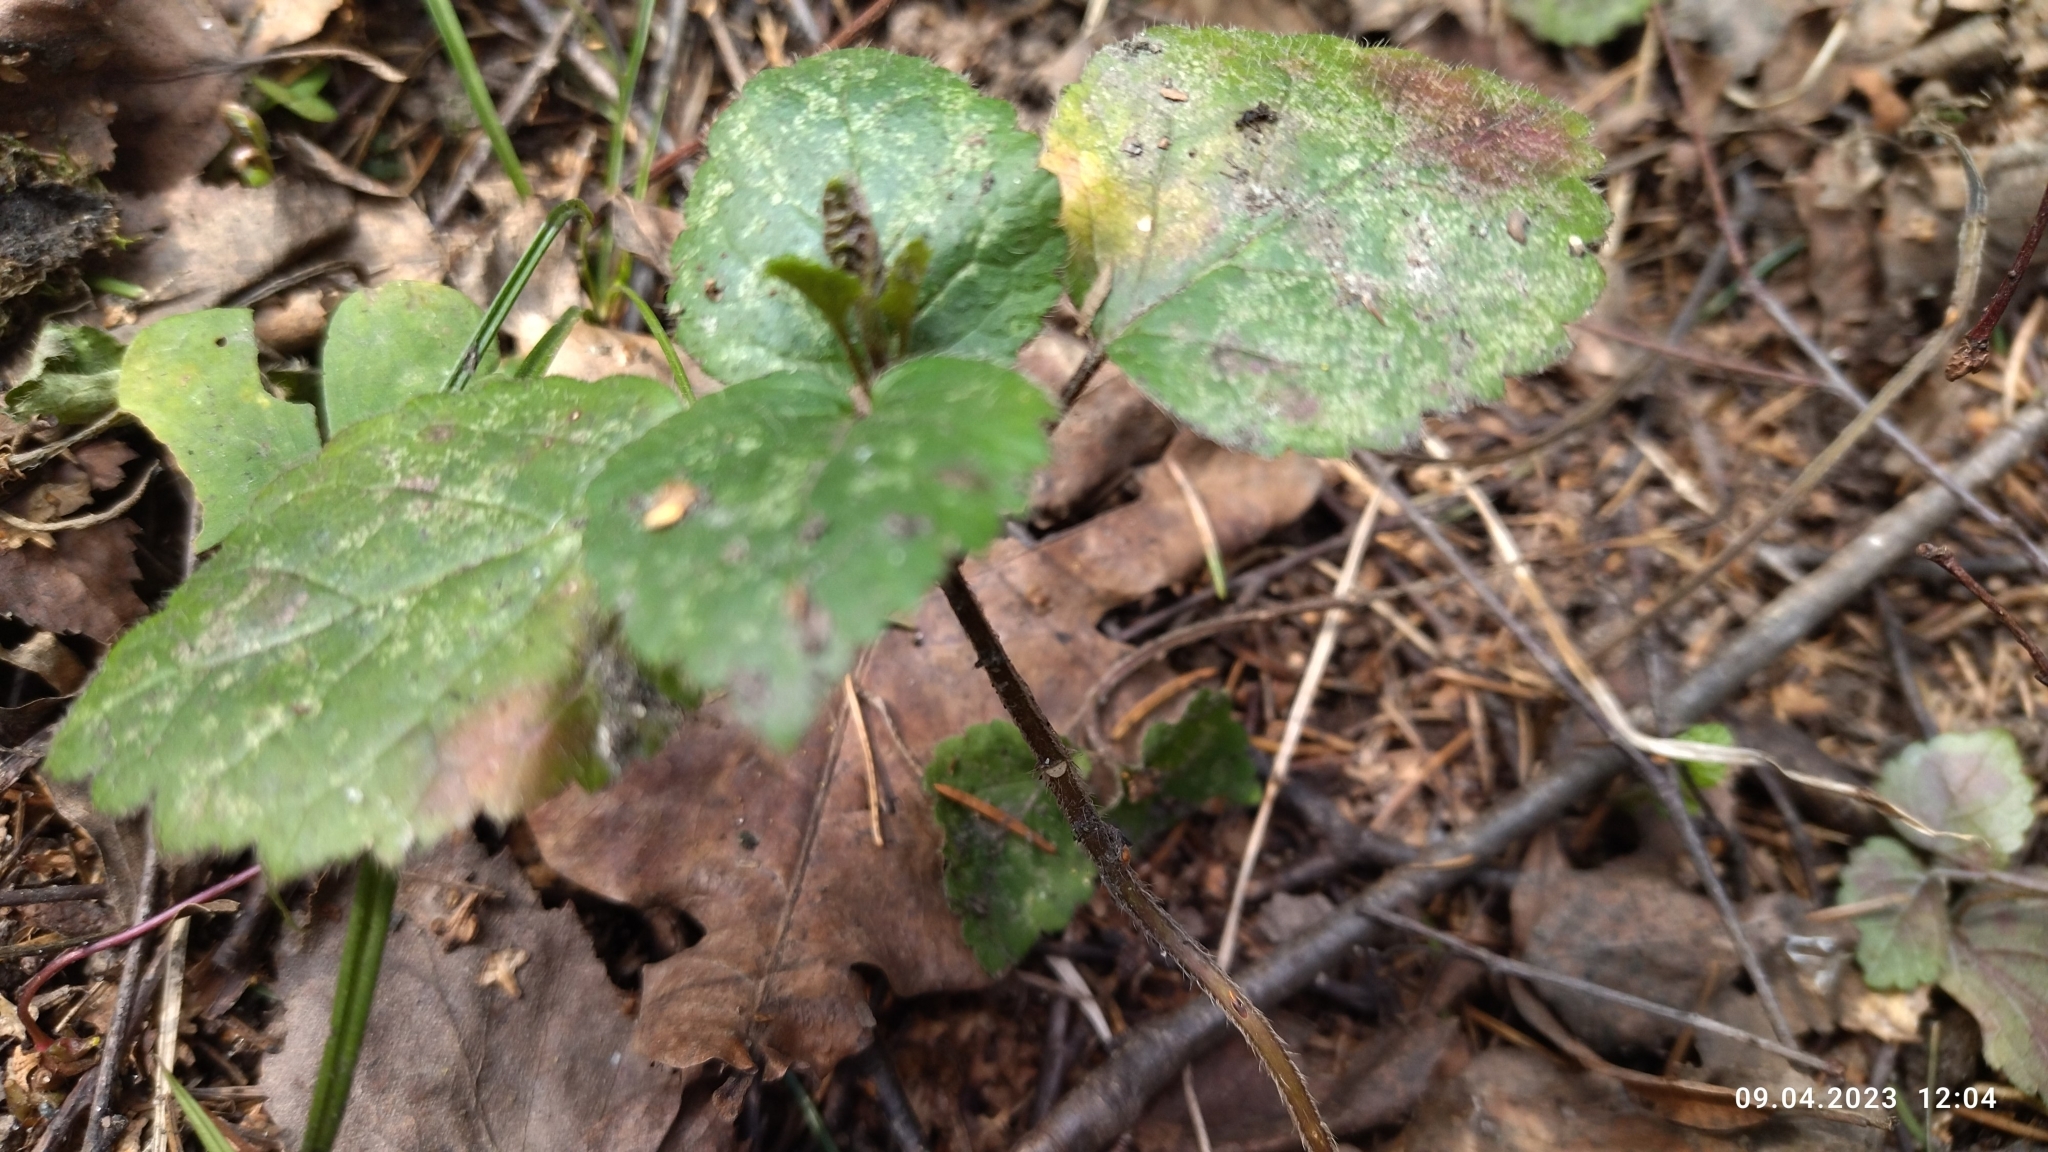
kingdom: Plantae
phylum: Tracheophyta
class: Magnoliopsida
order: Lamiales
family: Lamiaceae
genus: Lamium
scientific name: Lamium galeobdolon
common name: Yellow archangel
